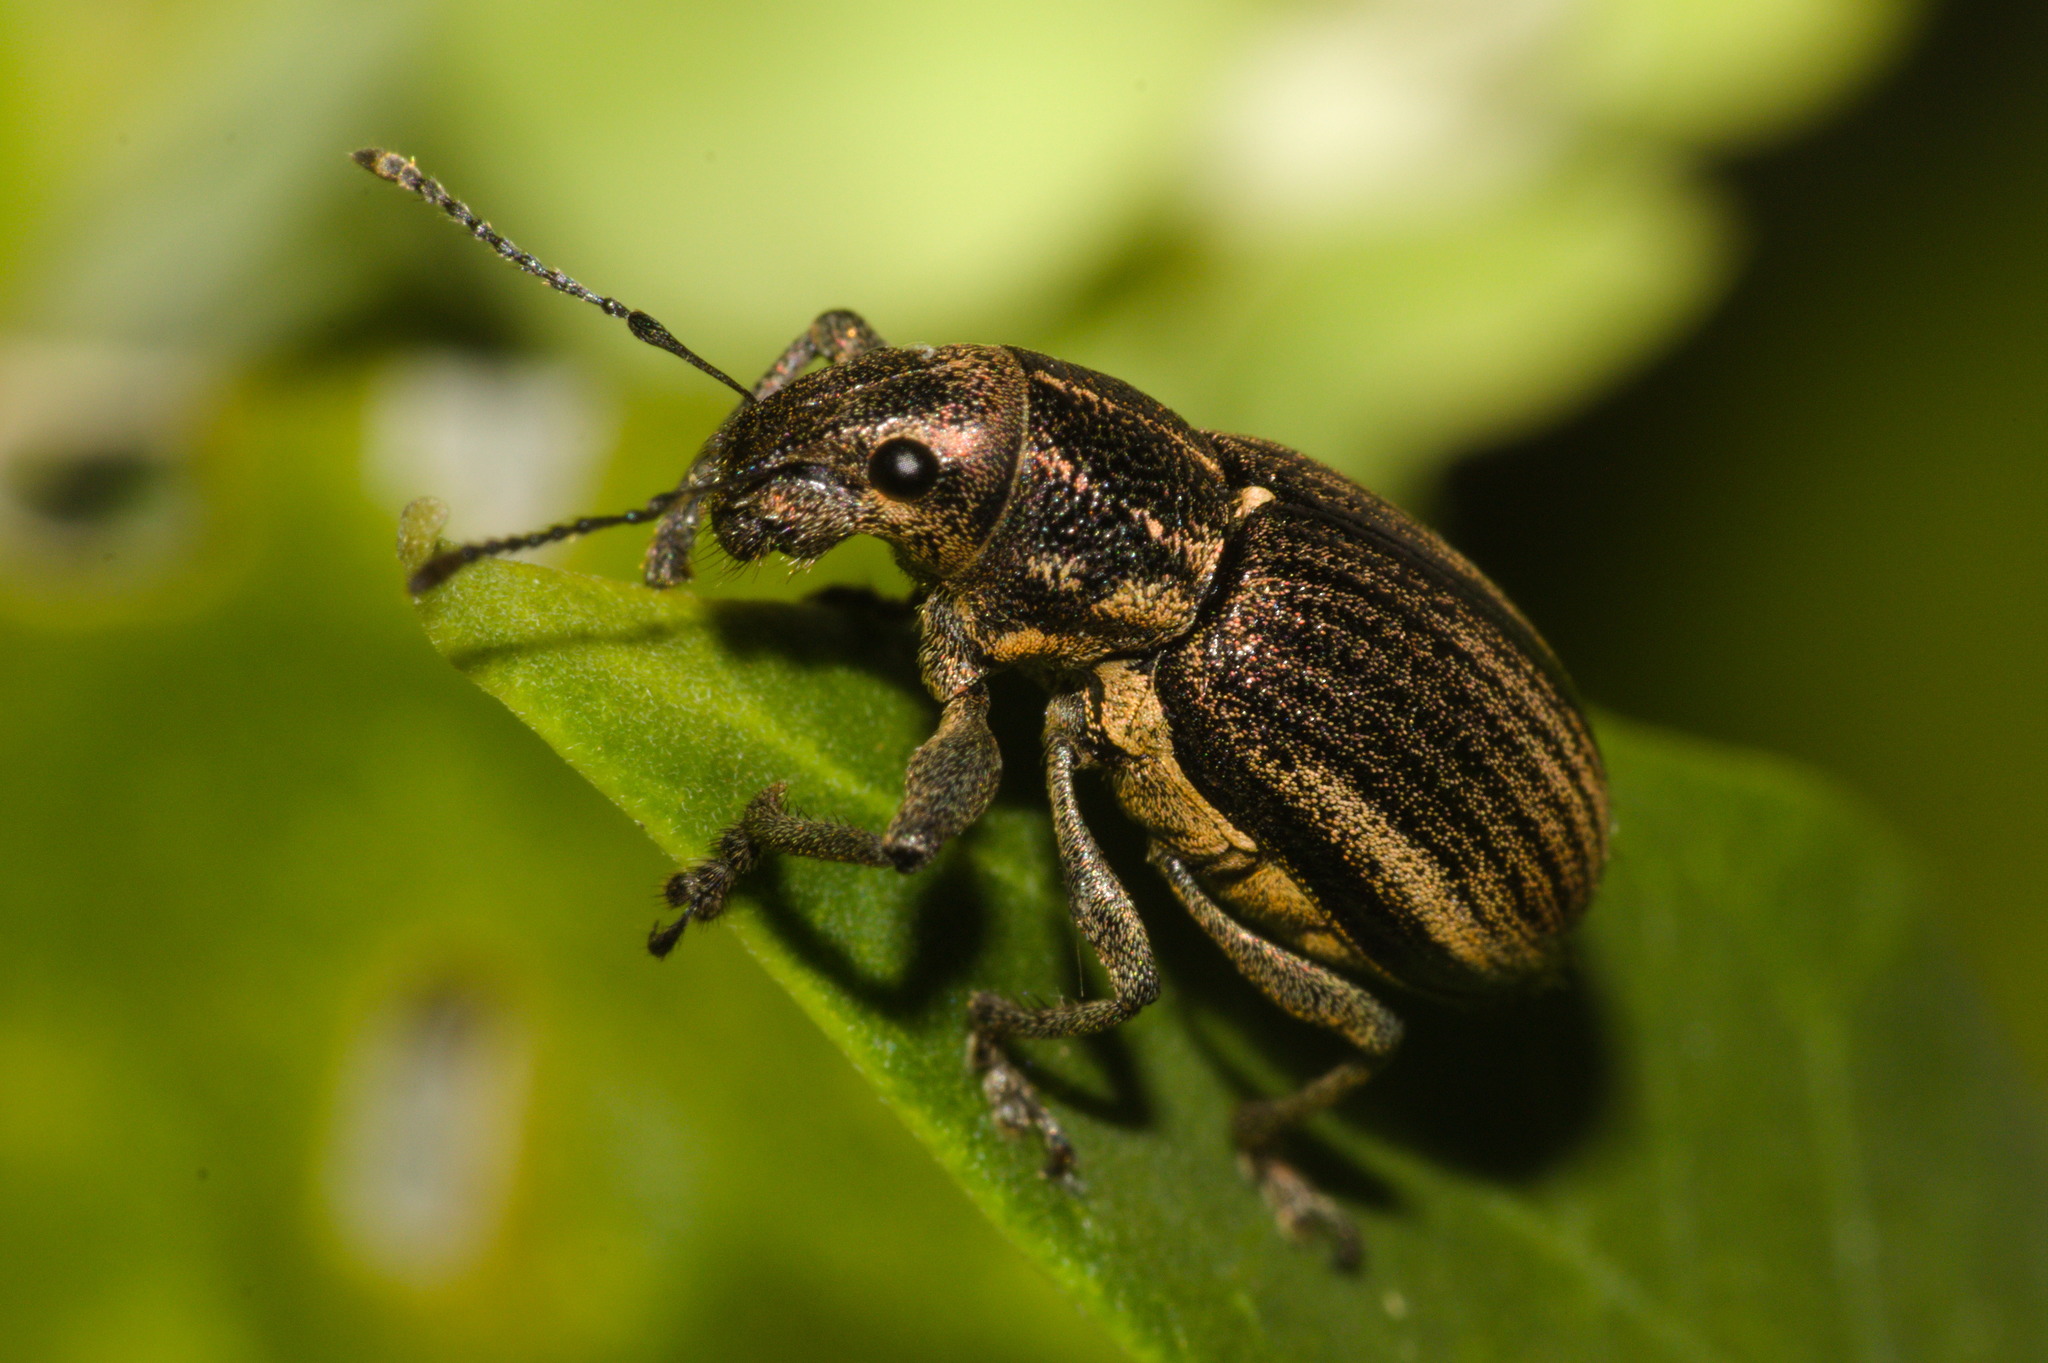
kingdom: Animalia
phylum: Arthropoda
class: Insecta
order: Coleoptera
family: Curculionidae
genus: Naupactus
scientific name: Naupactus tremolerasi
